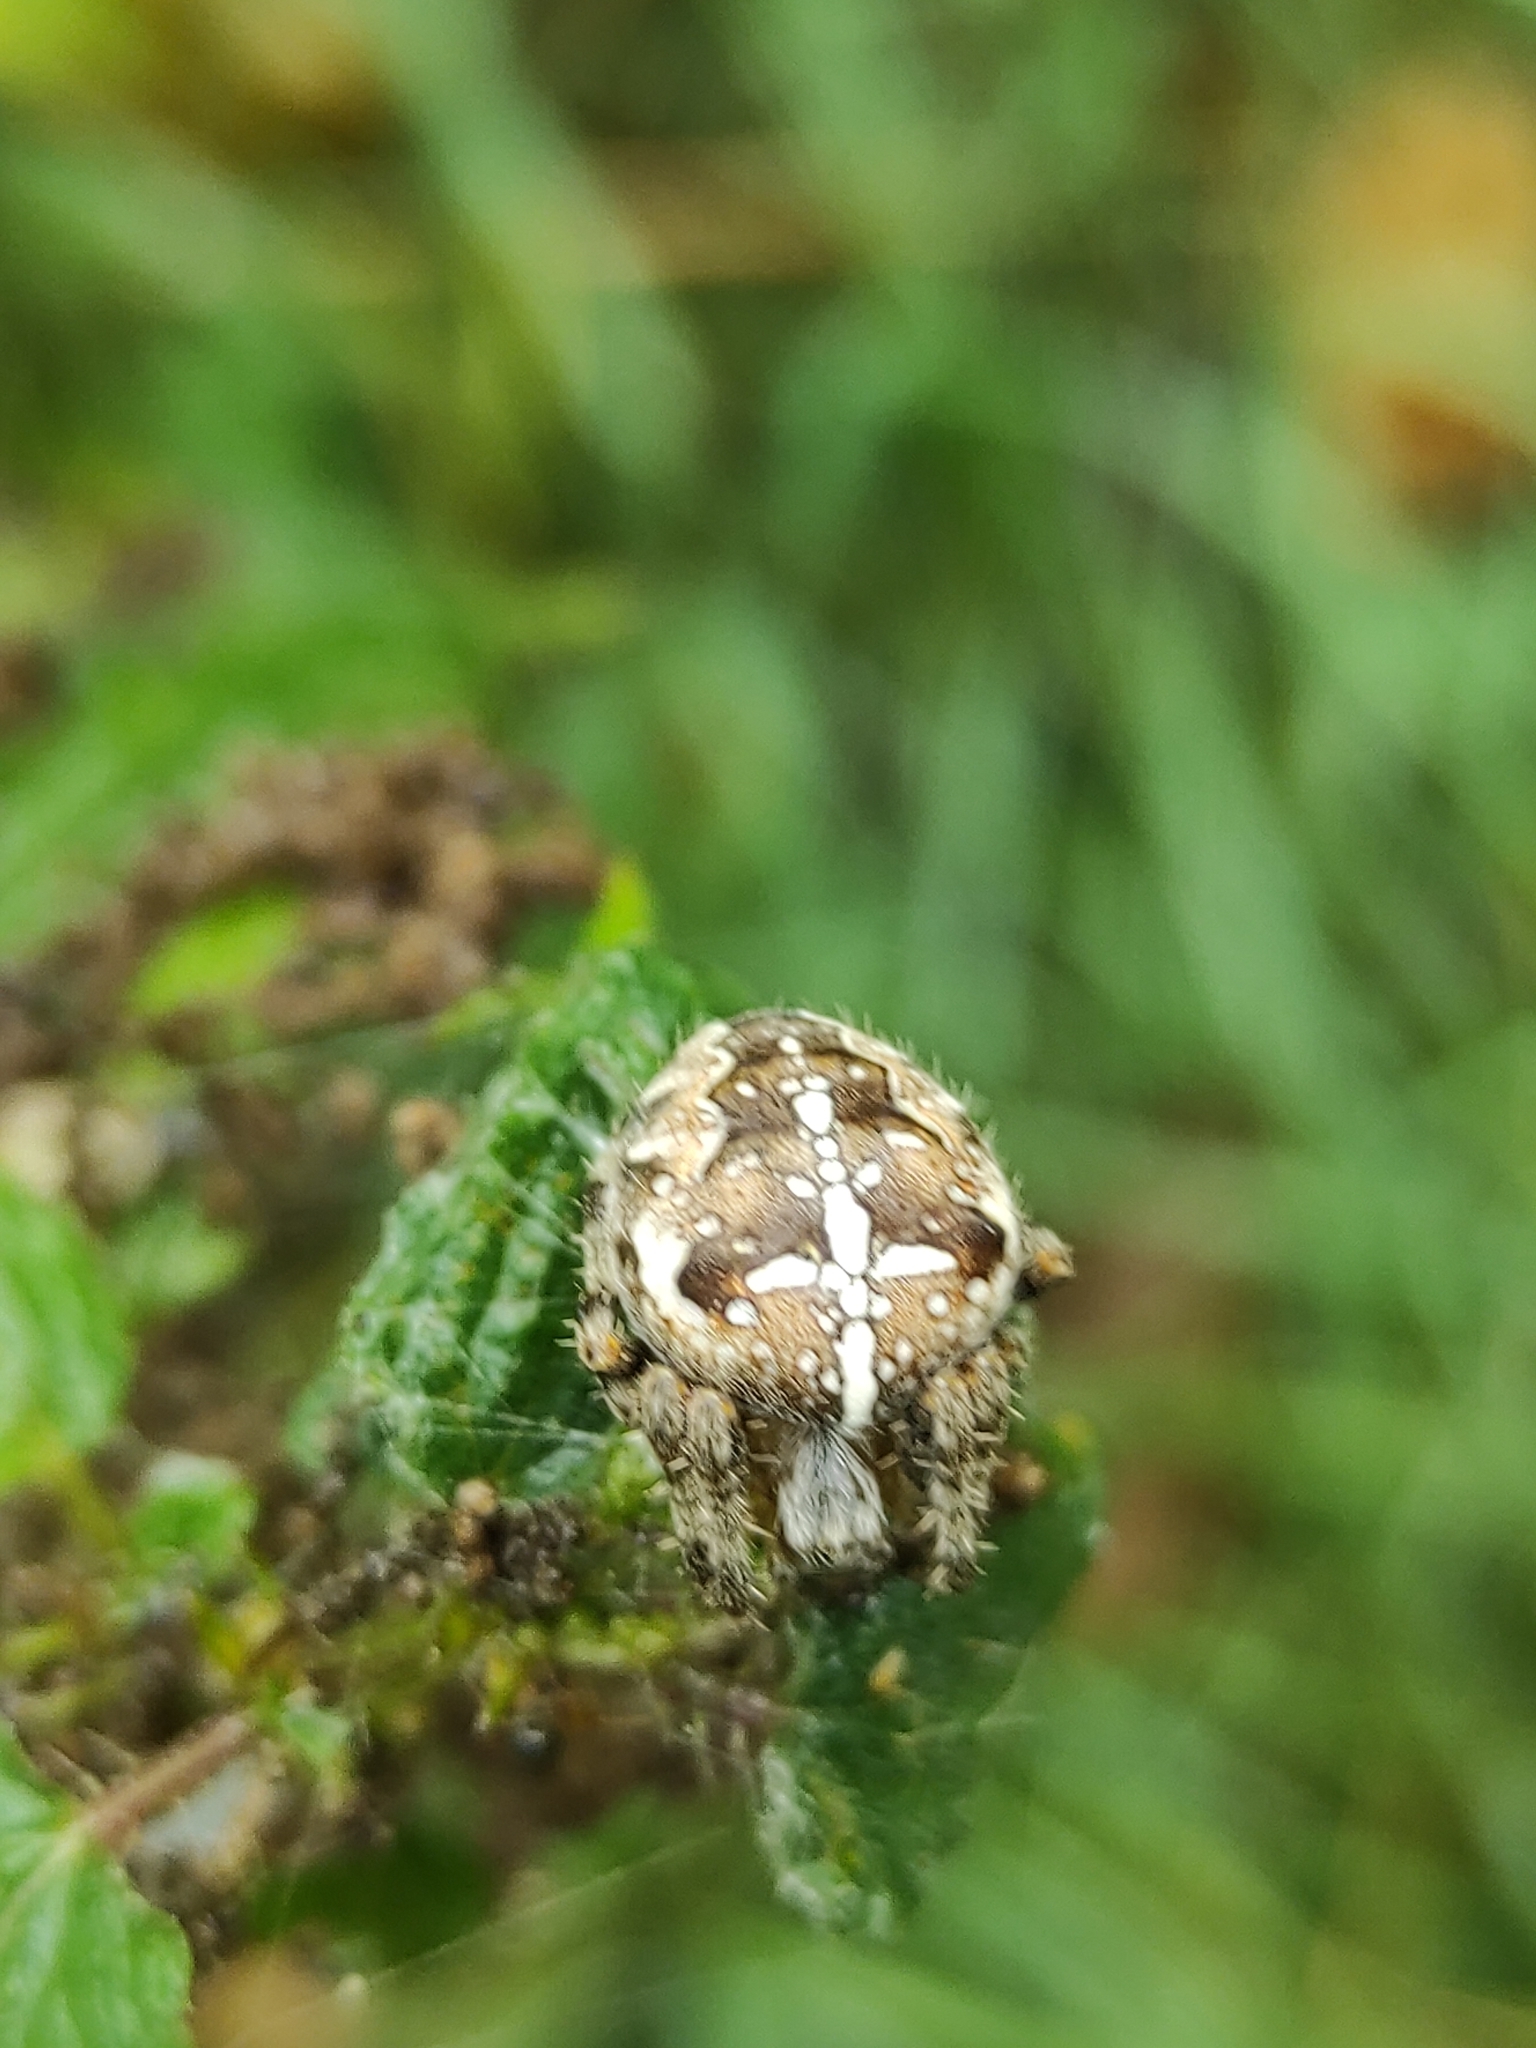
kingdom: Animalia
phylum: Arthropoda
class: Arachnida
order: Araneae
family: Araneidae
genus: Araneus
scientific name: Araneus diadematus
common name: Cross orbweaver
